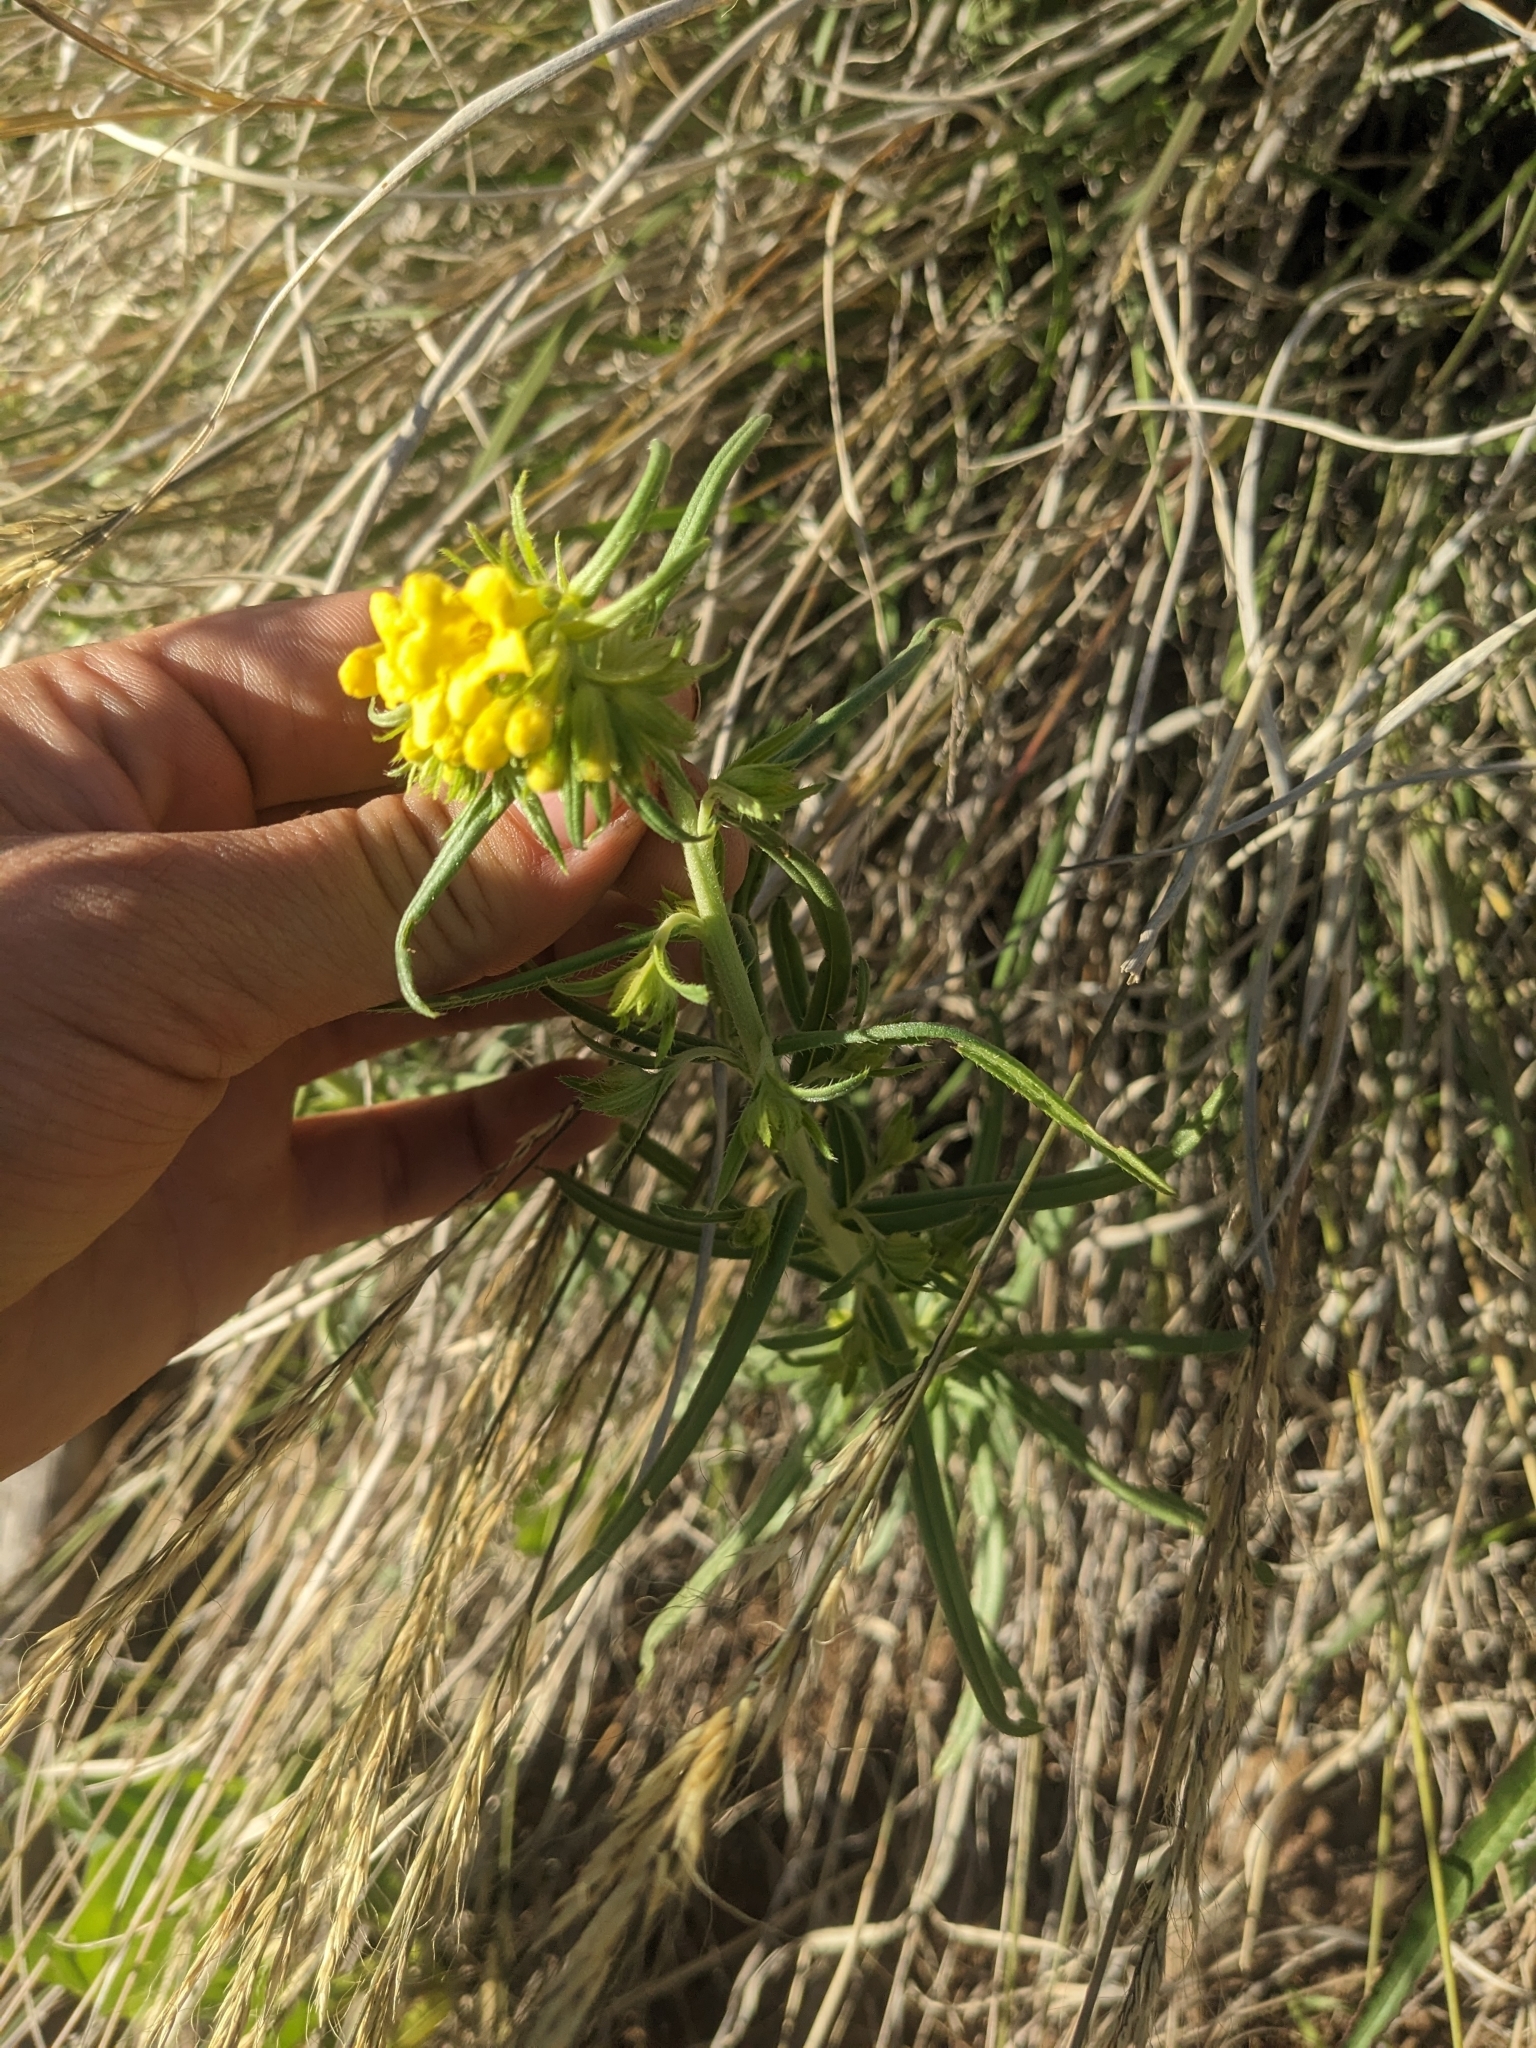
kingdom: Plantae
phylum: Tracheophyta
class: Magnoliopsida
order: Boraginales
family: Boraginaceae
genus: Lithospermum
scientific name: Lithospermum multiflorum
